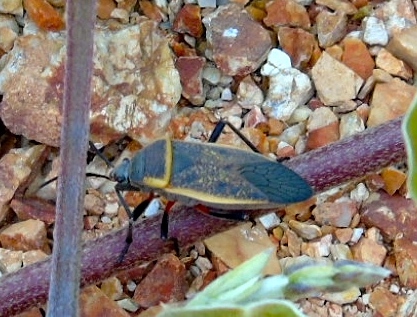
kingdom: Animalia
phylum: Arthropoda
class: Insecta
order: Hemiptera
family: Largidae
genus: Largus
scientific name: Largus
